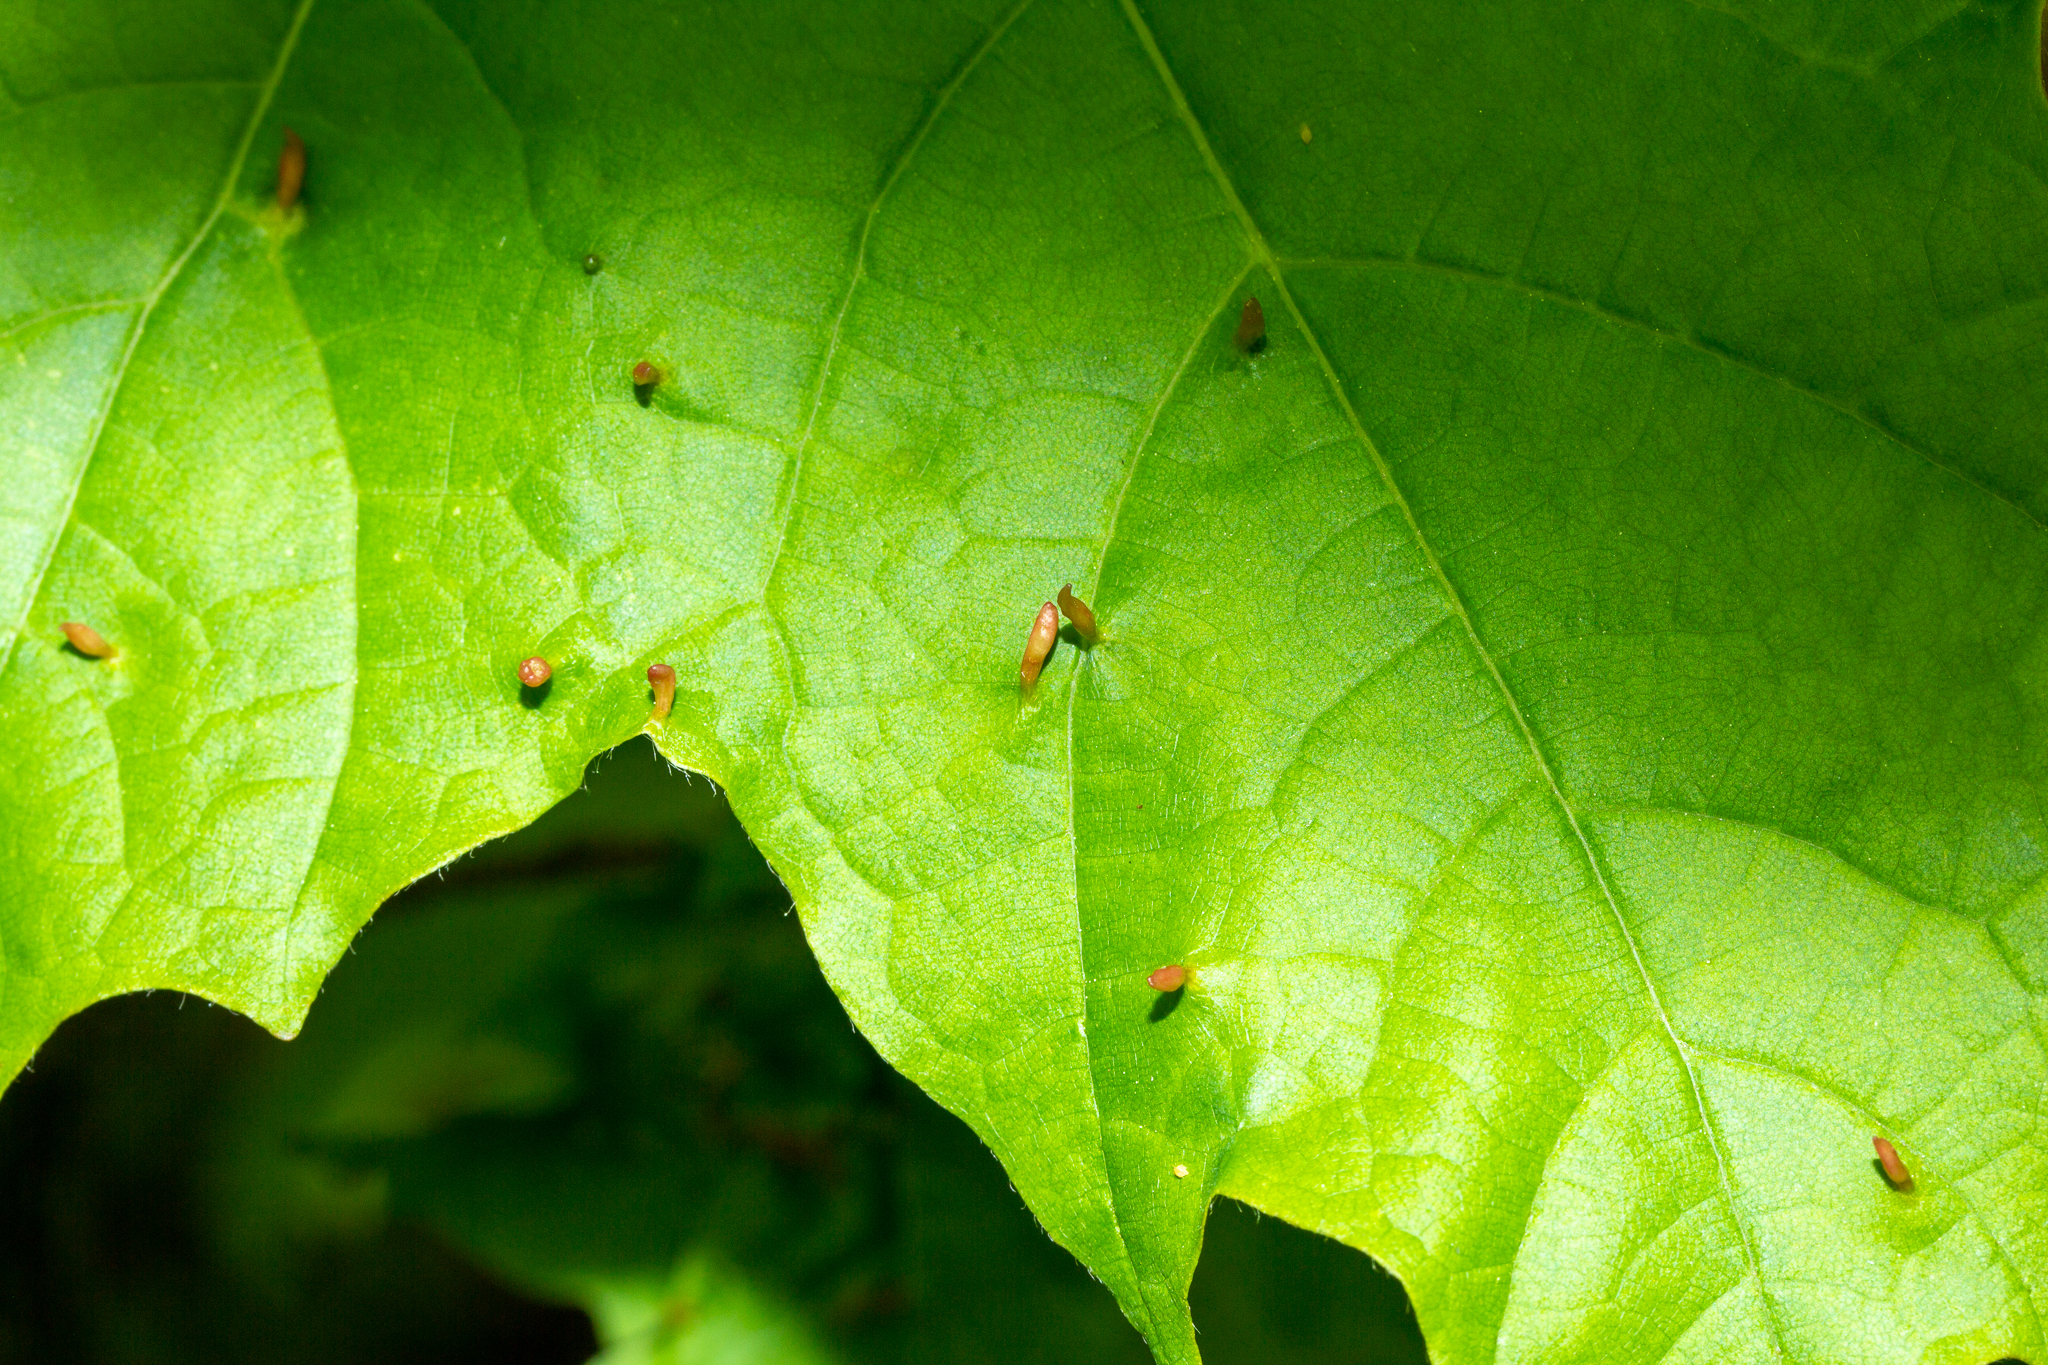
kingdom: Animalia
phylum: Arthropoda
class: Arachnida
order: Trombidiformes
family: Eriophyidae
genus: Vasates
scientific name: Vasates aceriscrumena
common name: Maple spindle gall mite
